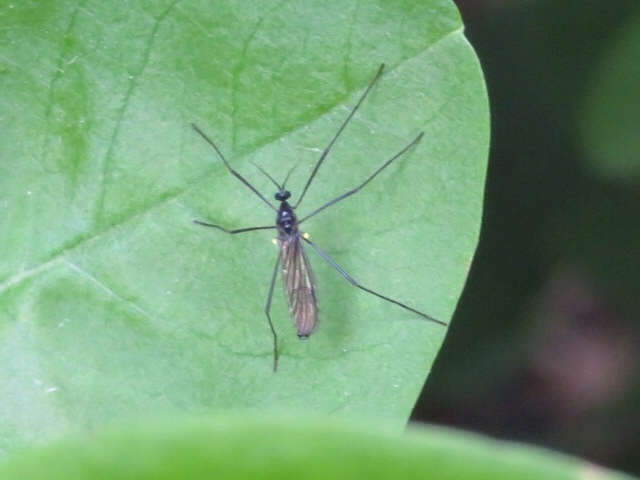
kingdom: Animalia
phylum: Arthropoda
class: Insecta
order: Diptera
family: Limoniidae
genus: Gnophomyia
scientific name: Gnophomyia tristissima
